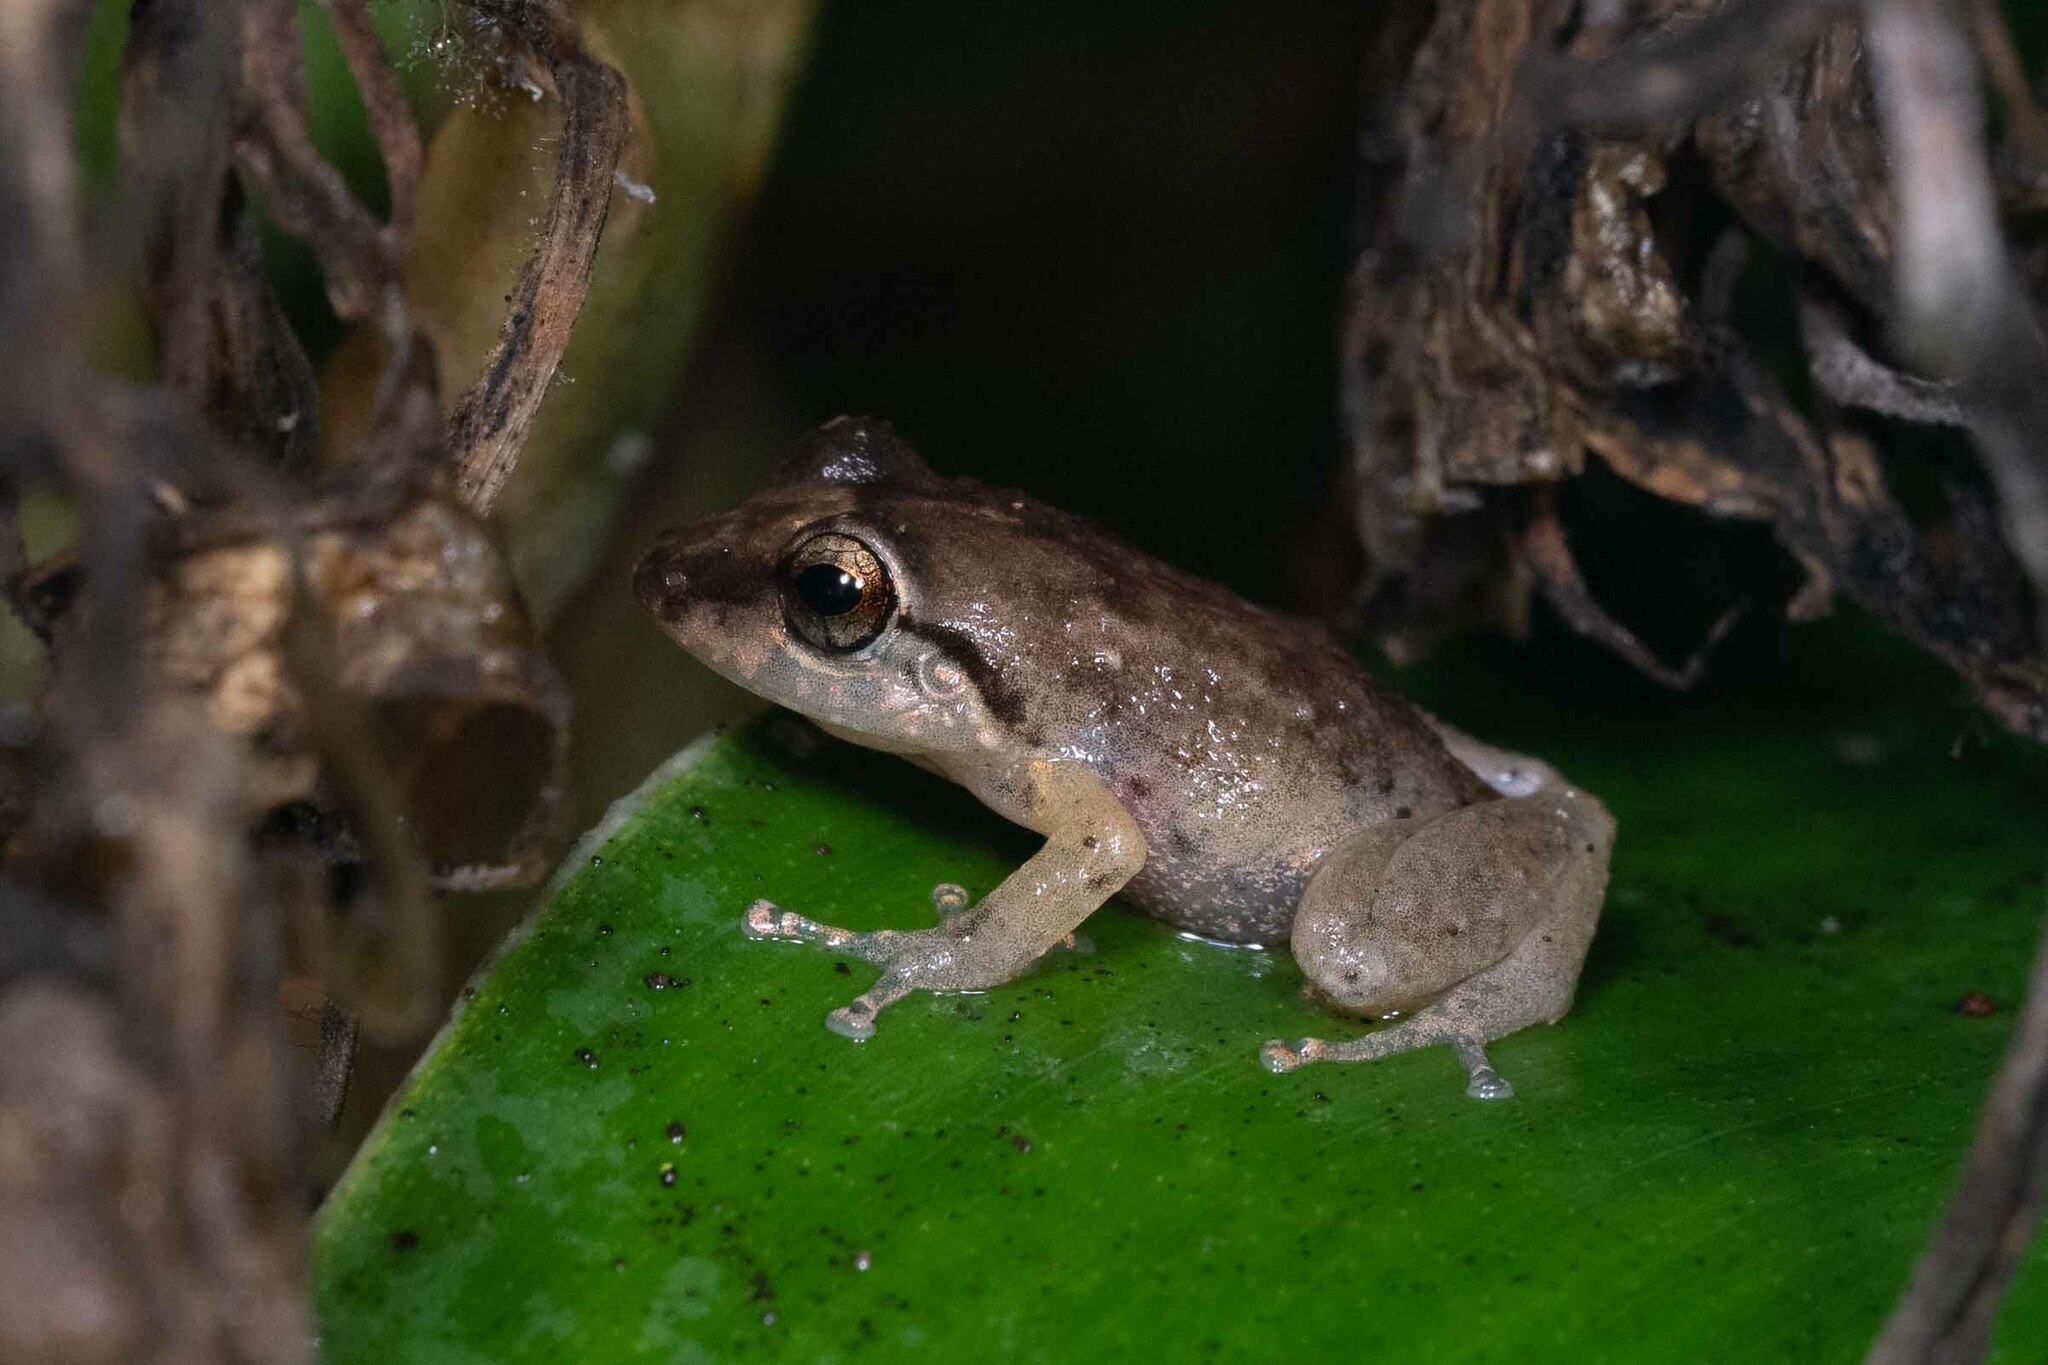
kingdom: Animalia
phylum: Chordata
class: Amphibia
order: Anura
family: Eleutherodactylidae
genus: Eleutherodactylus
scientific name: Eleutherodactylus coqui
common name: Coqui frog
